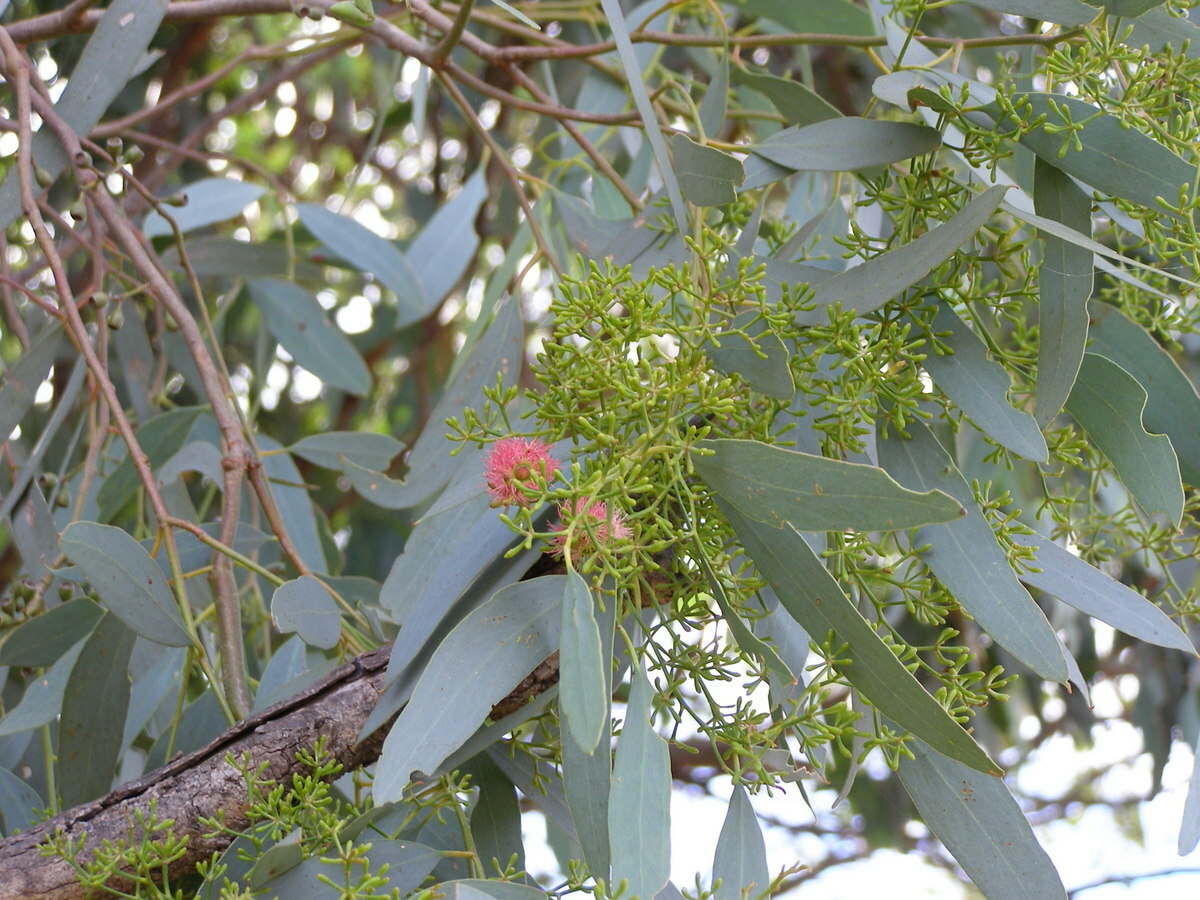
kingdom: Plantae
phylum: Tracheophyta
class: Magnoliopsida
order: Myrtales
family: Myrtaceae
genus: Eucalyptus
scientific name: Eucalyptus largiflorens
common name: Black-box
